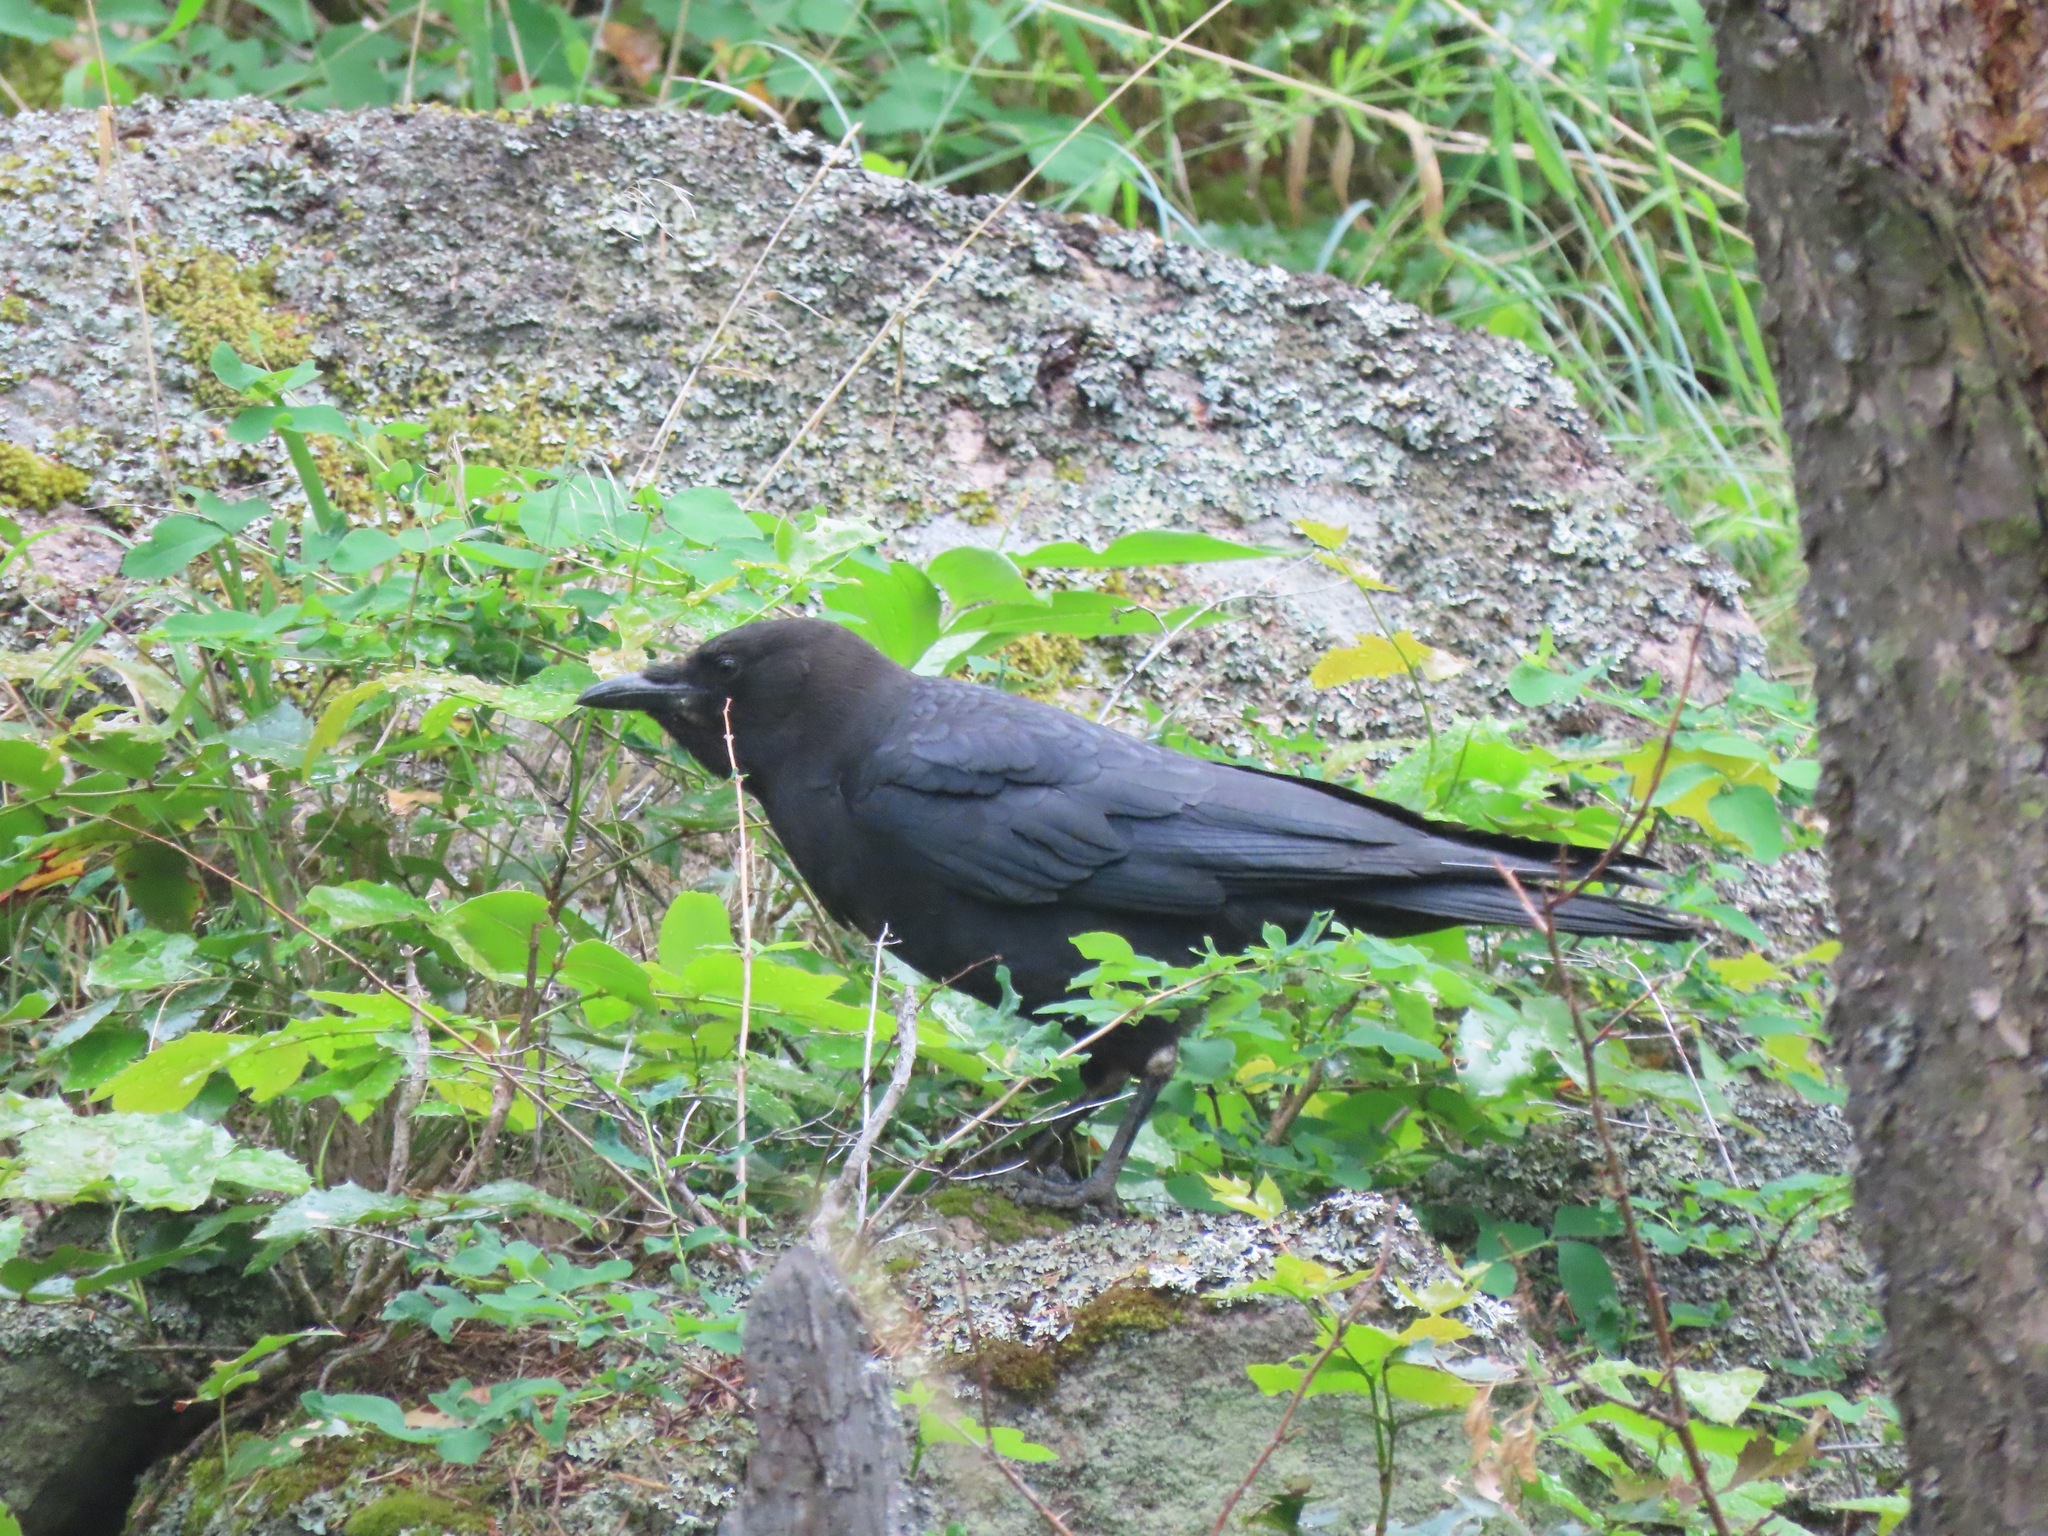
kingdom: Animalia
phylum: Chordata
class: Aves
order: Passeriformes
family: Corvidae
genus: Corvus
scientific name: Corvus brachyrhynchos
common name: American crow
